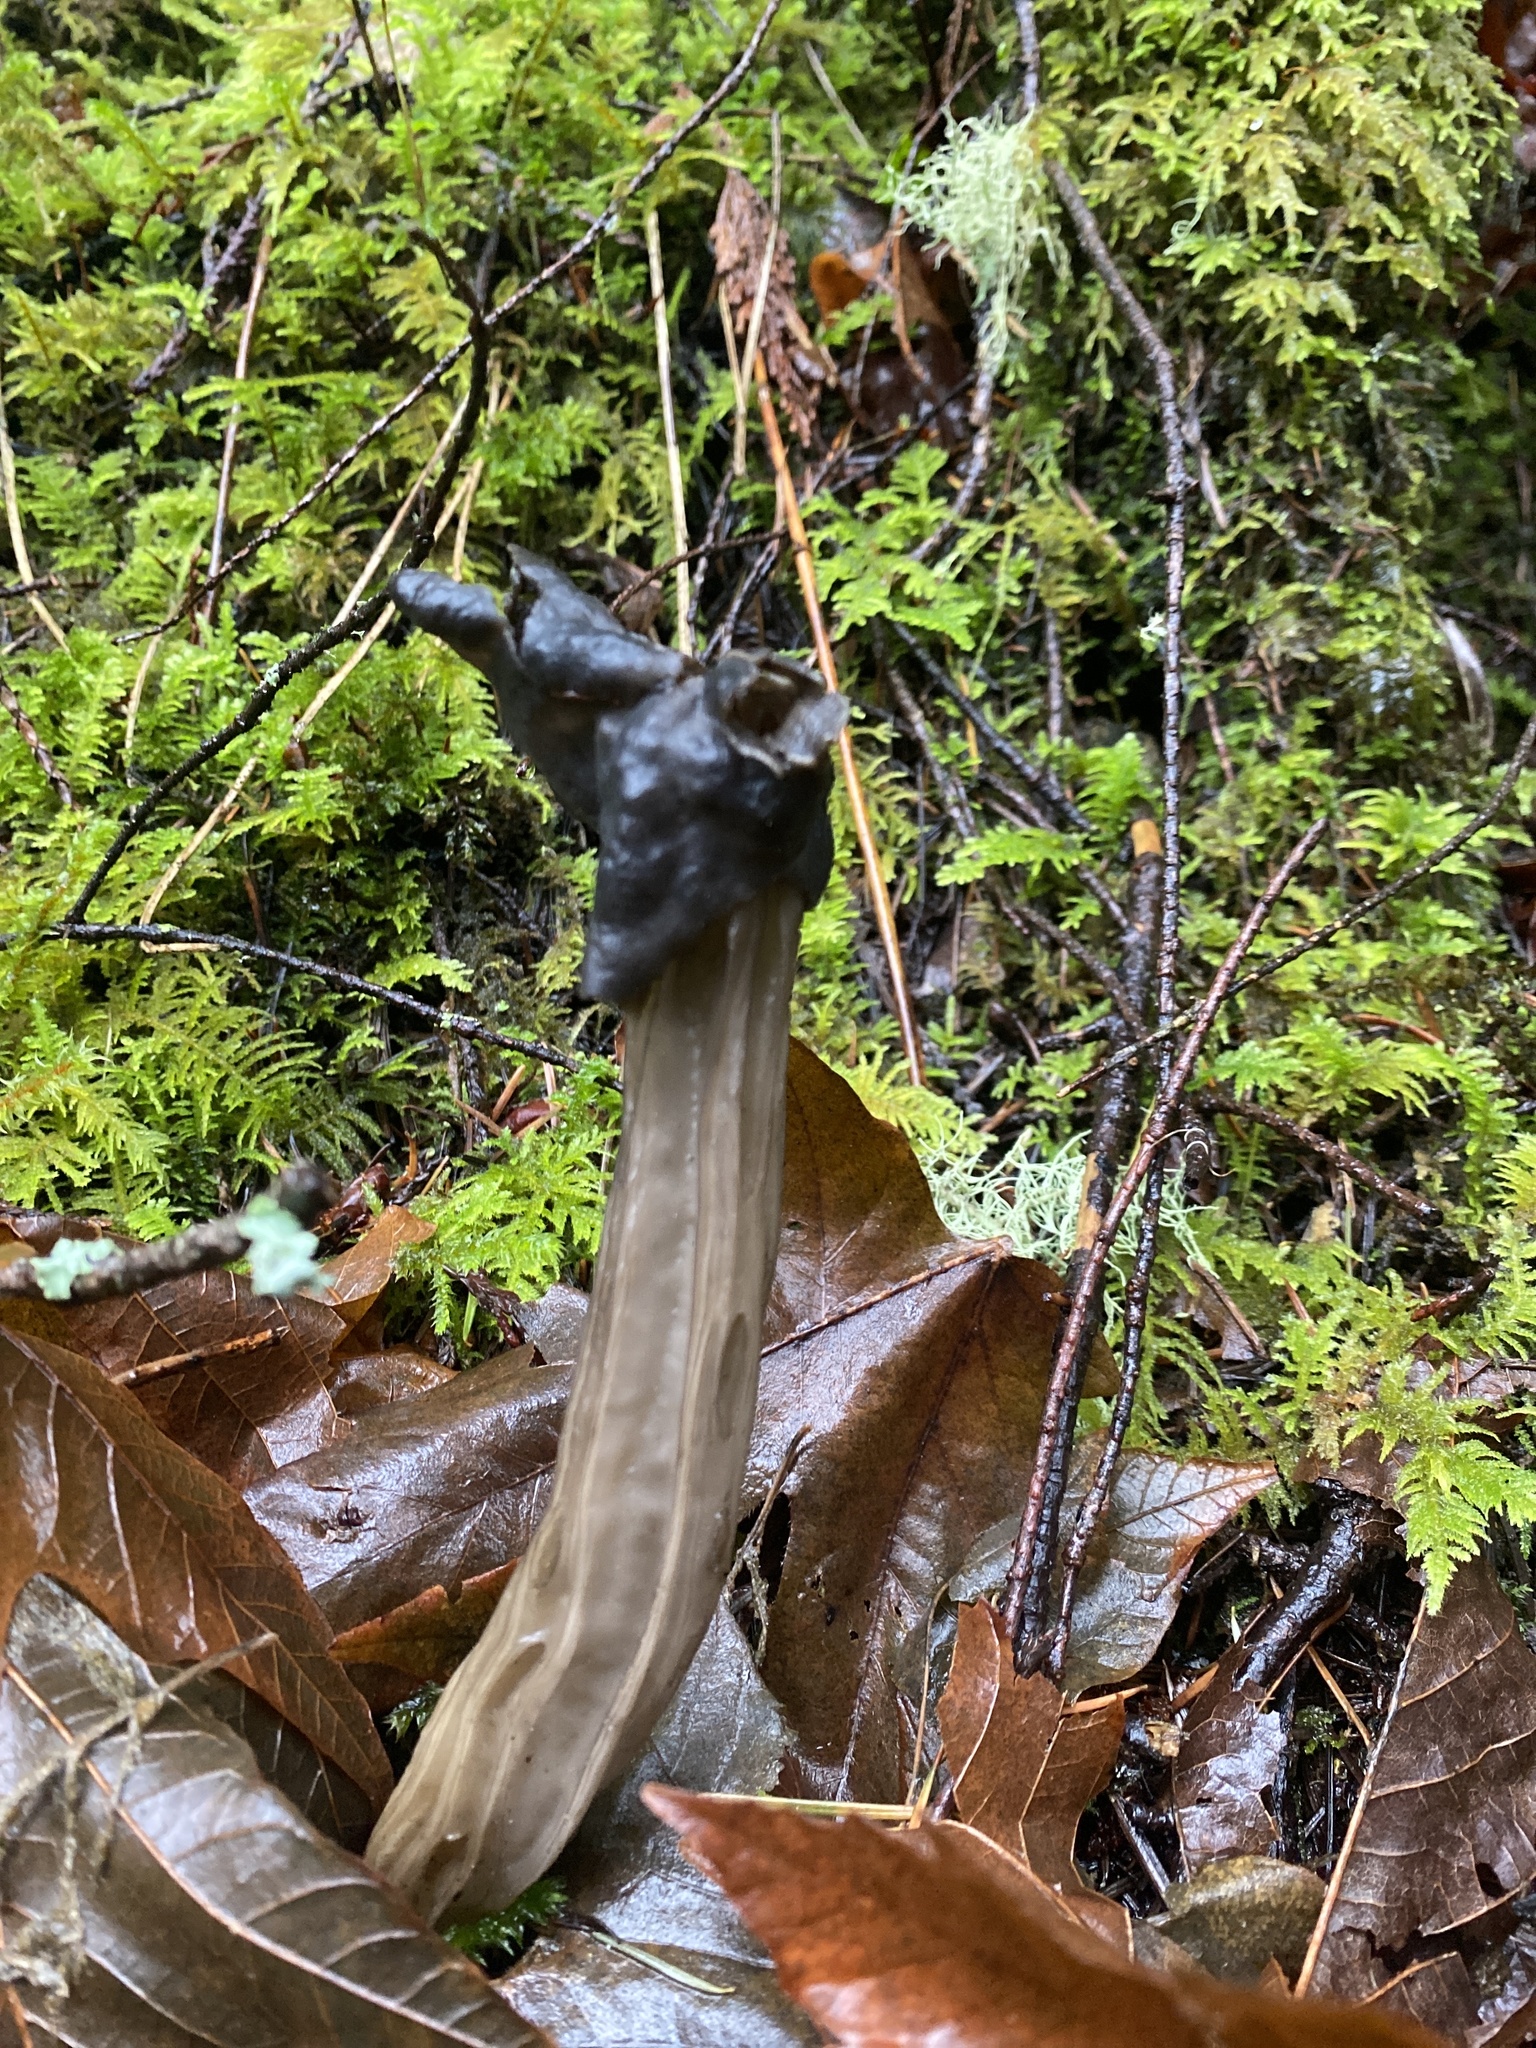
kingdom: Fungi
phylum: Ascomycota
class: Pezizomycetes
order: Pezizales
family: Helvellaceae
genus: Helvella
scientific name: Helvella vespertina
